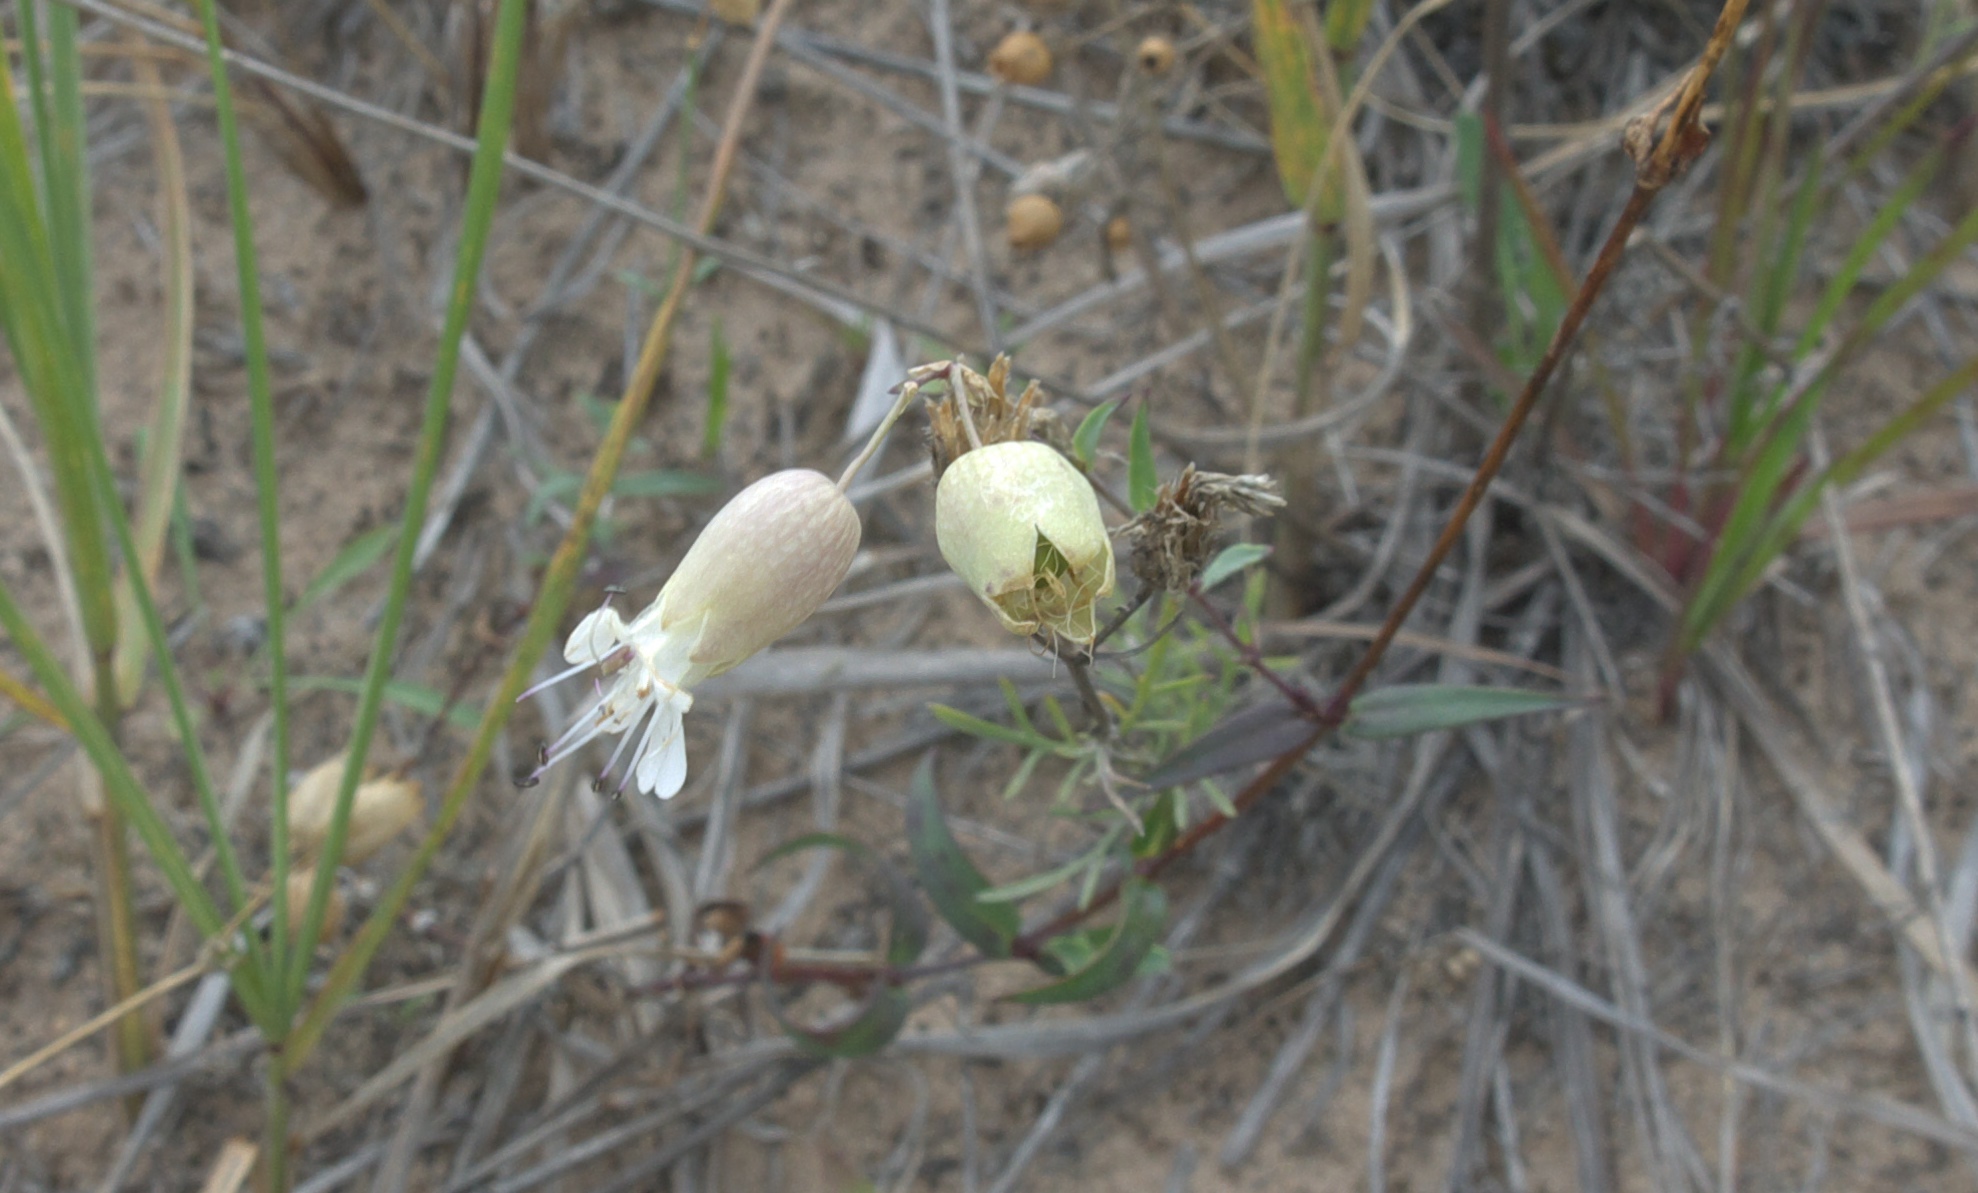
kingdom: Plantae
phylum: Tracheophyta
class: Magnoliopsida
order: Caryophyllales
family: Caryophyllaceae
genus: Silene
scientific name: Silene vulgaris
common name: Bladder campion
